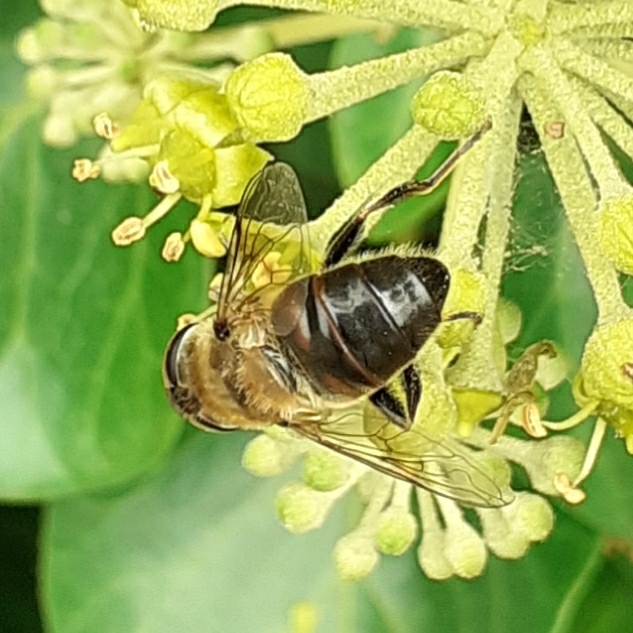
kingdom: Animalia
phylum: Arthropoda
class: Insecta
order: Diptera
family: Syrphidae
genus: Eristalis
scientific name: Eristalis tenax
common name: Drone fly
